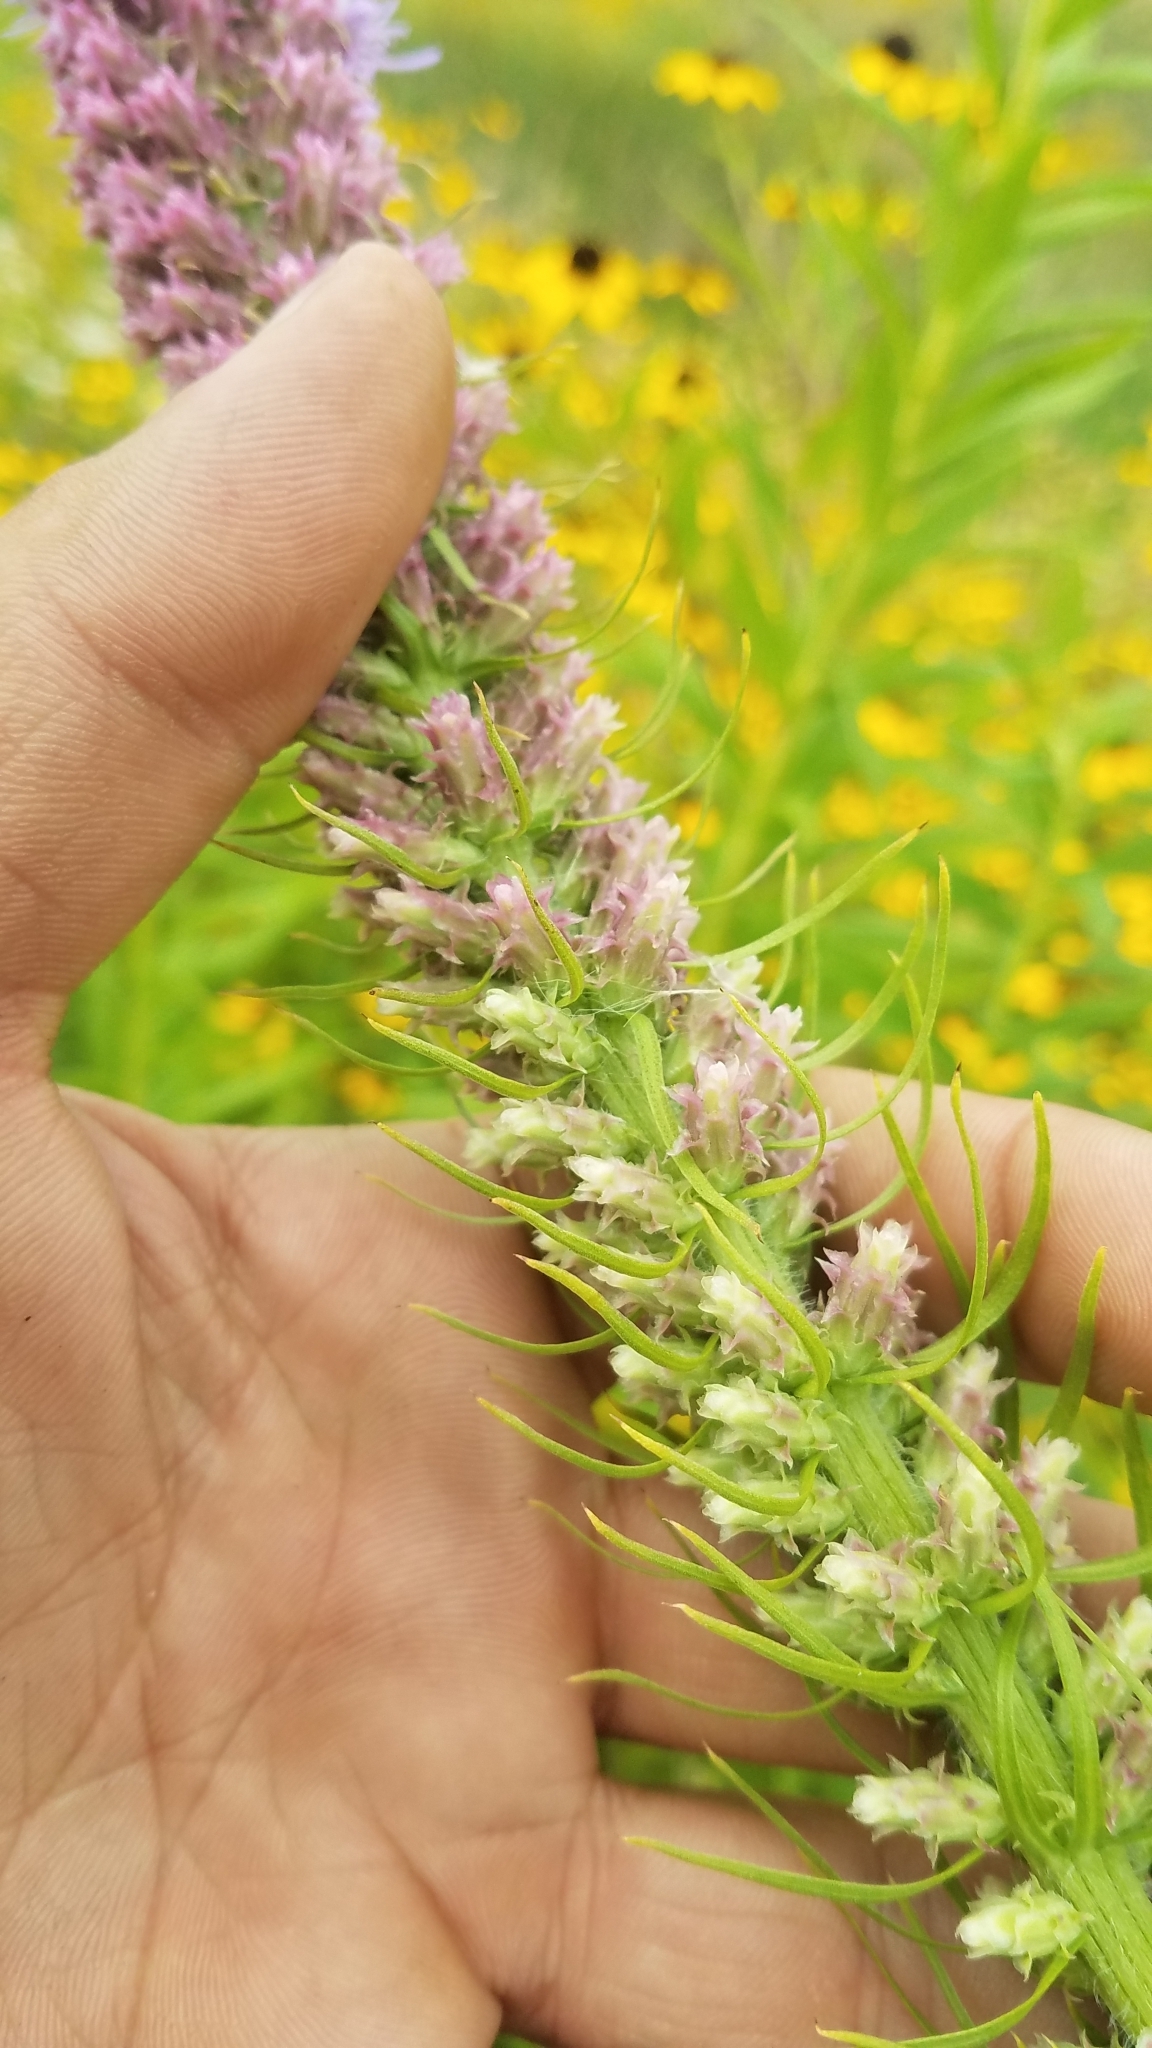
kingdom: Plantae
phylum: Tracheophyta
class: Magnoliopsida
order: Asterales
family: Asteraceae
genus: Liatris
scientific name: Liatris pycnostachya
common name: Cattail gayfeather
